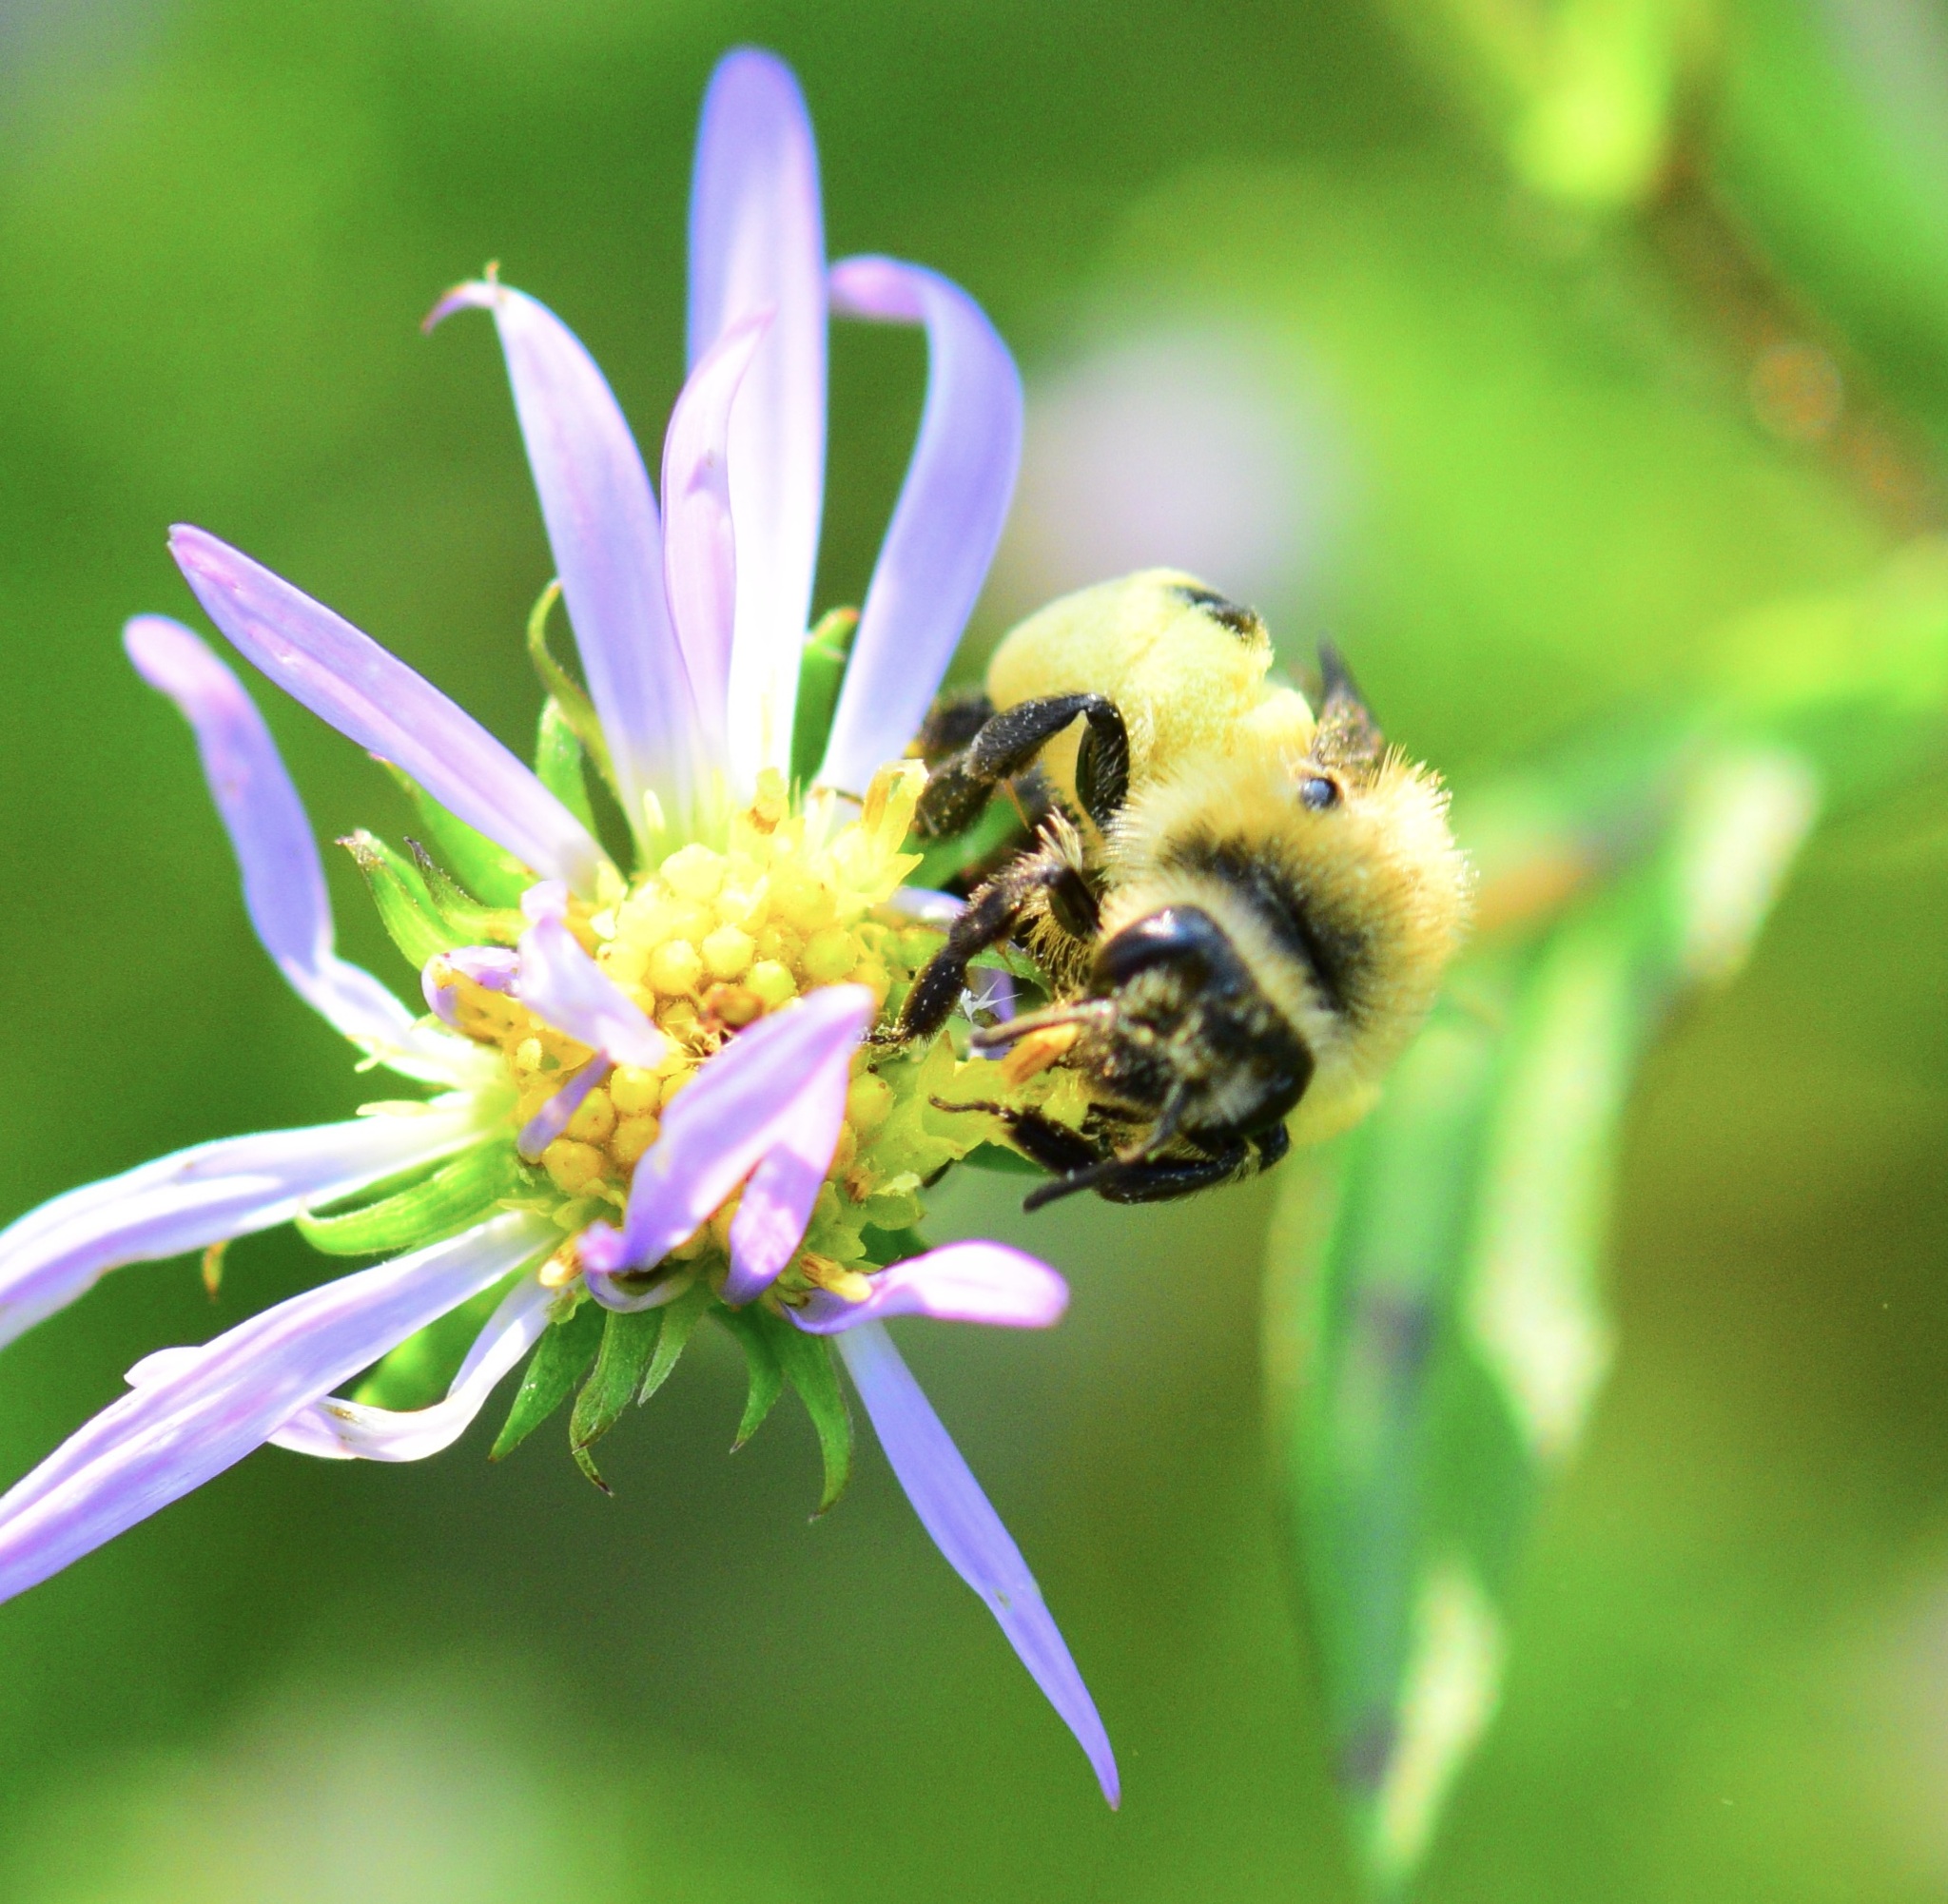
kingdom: Animalia
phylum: Arthropoda
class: Insecta
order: Hymenoptera
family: Andrenidae
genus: Andrena
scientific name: Andrena asteris
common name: Aster mining bee
